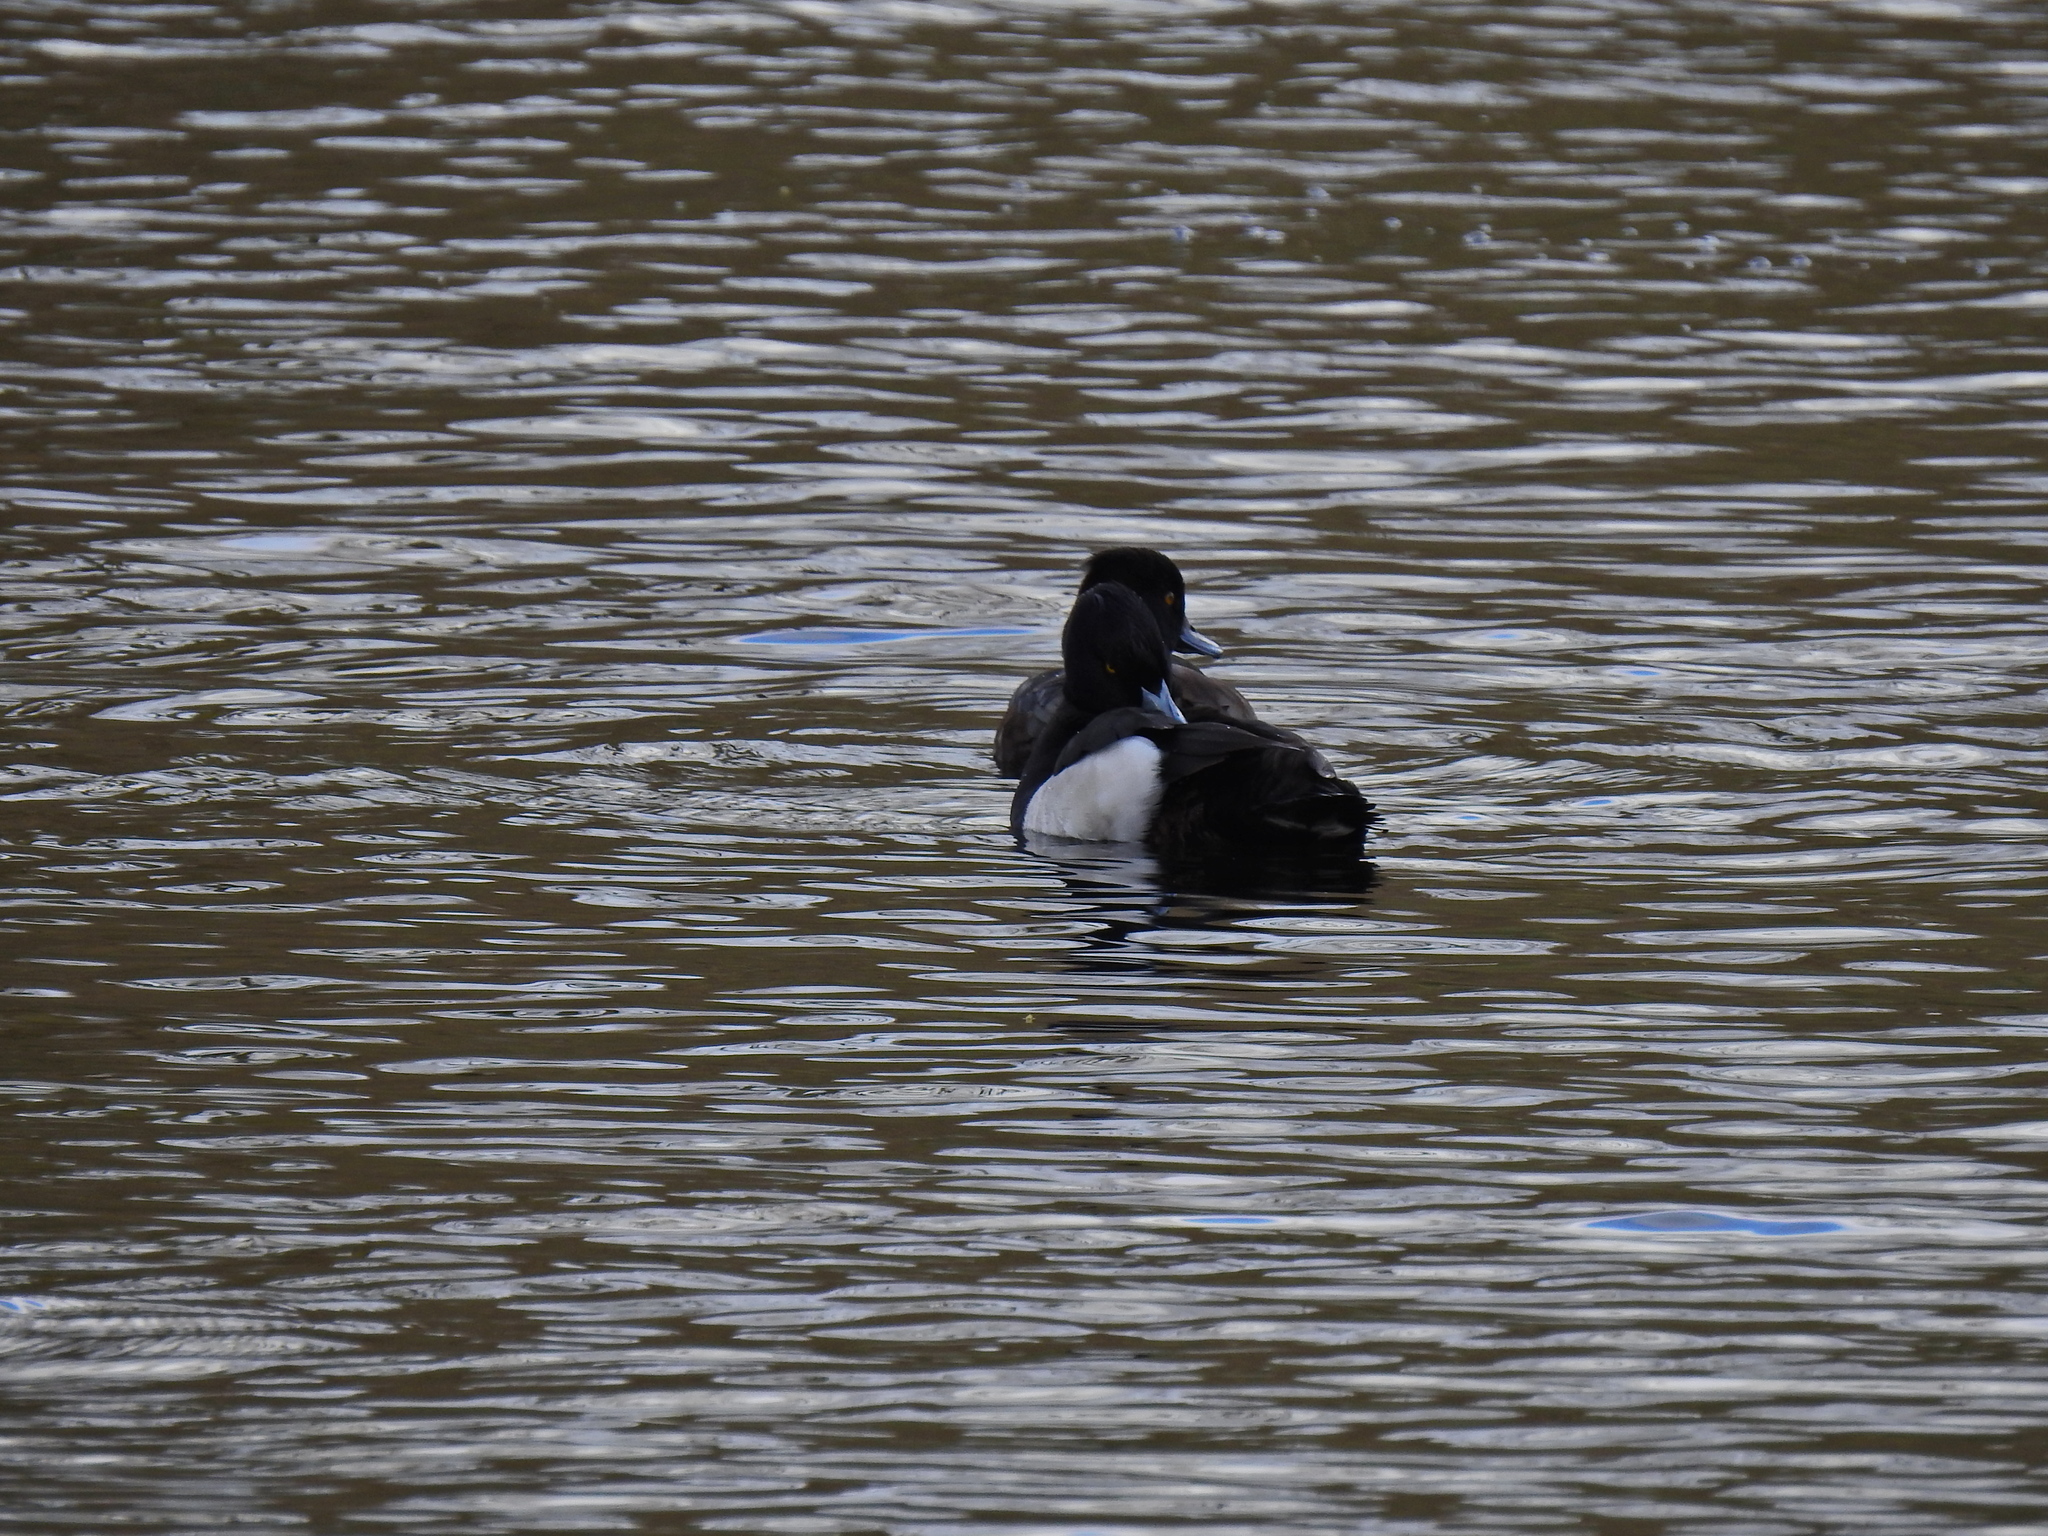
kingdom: Animalia
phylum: Chordata
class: Aves
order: Anseriformes
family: Anatidae
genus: Aythya
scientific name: Aythya fuligula
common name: Tufted duck
